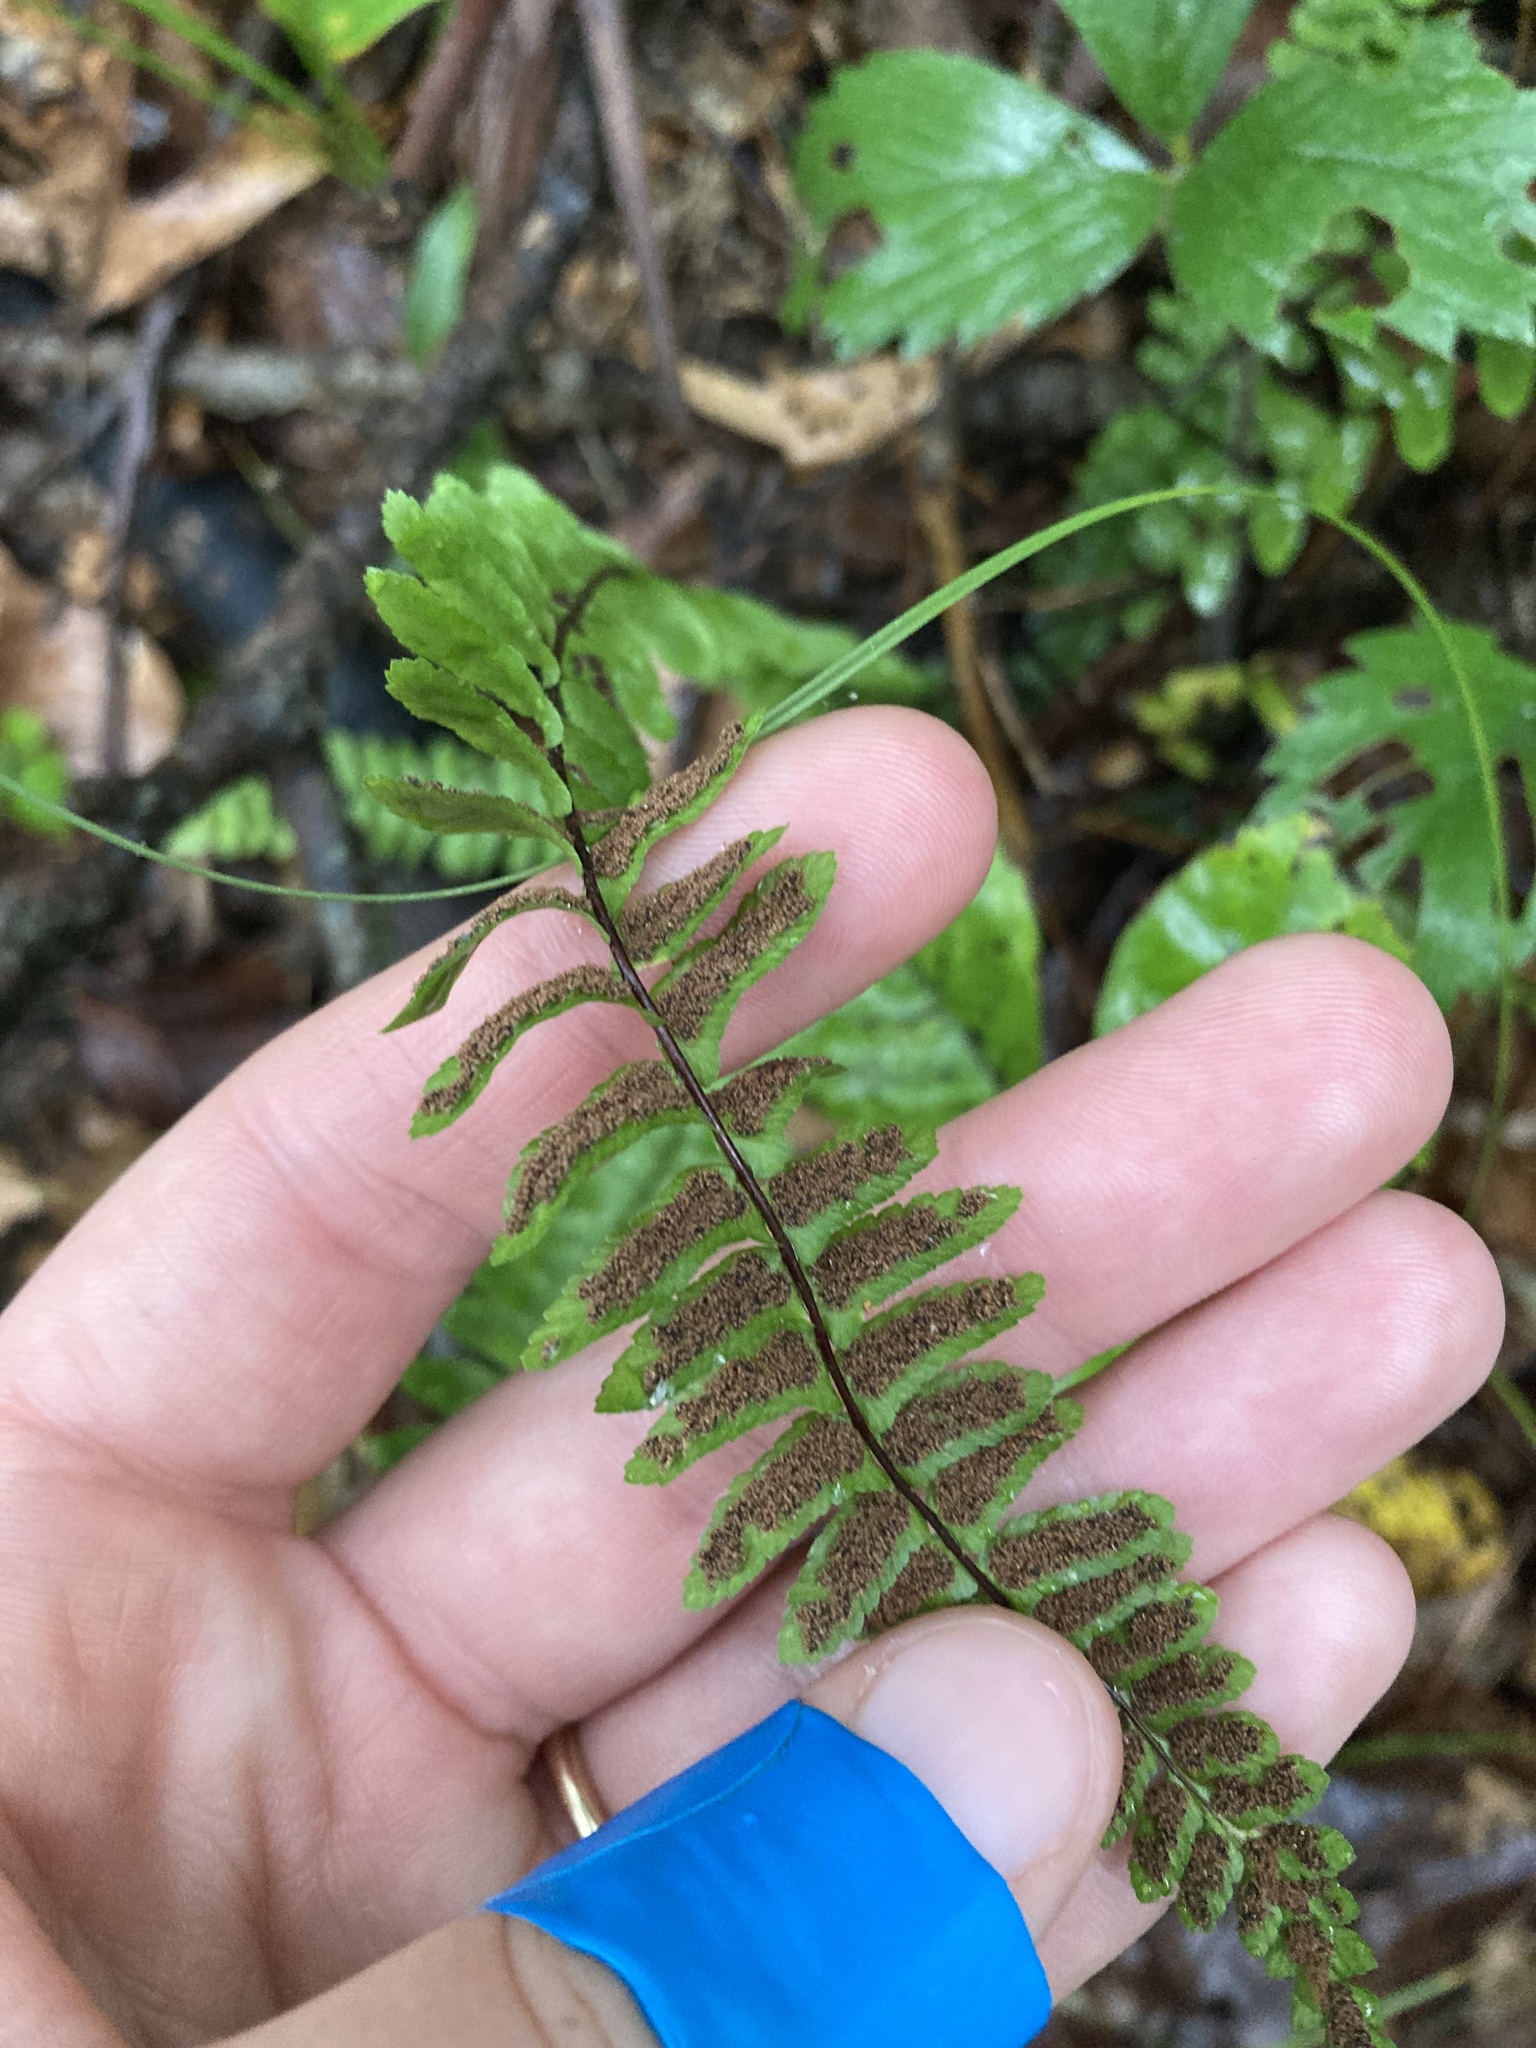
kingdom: Plantae
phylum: Tracheophyta
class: Polypodiopsida
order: Polypodiales
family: Aspleniaceae
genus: Asplenium
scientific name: Asplenium platyneuron
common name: Ebony spleenwort
